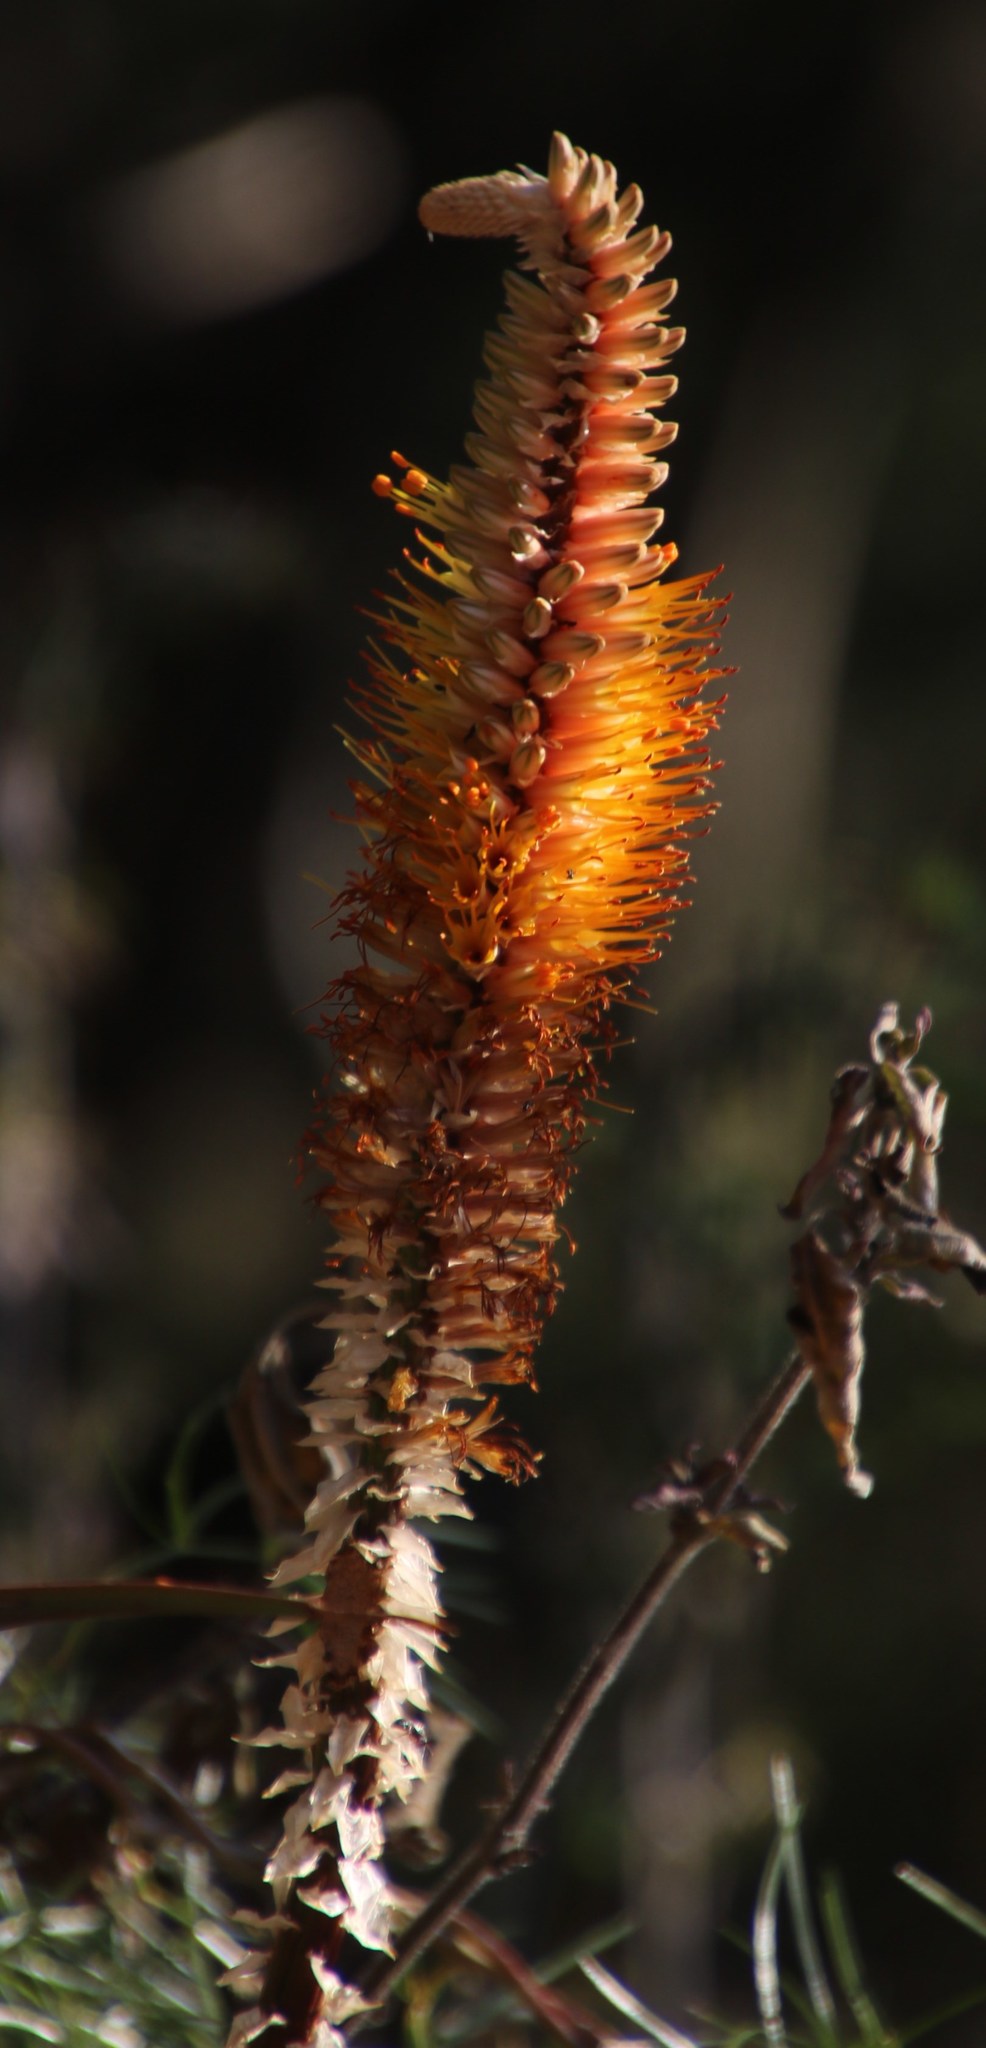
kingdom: Plantae
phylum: Tracheophyta
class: Liliopsida
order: Asparagales
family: Asphodelaceae
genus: Aloe
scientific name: Aloe spicata
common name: Gazaland aloe
